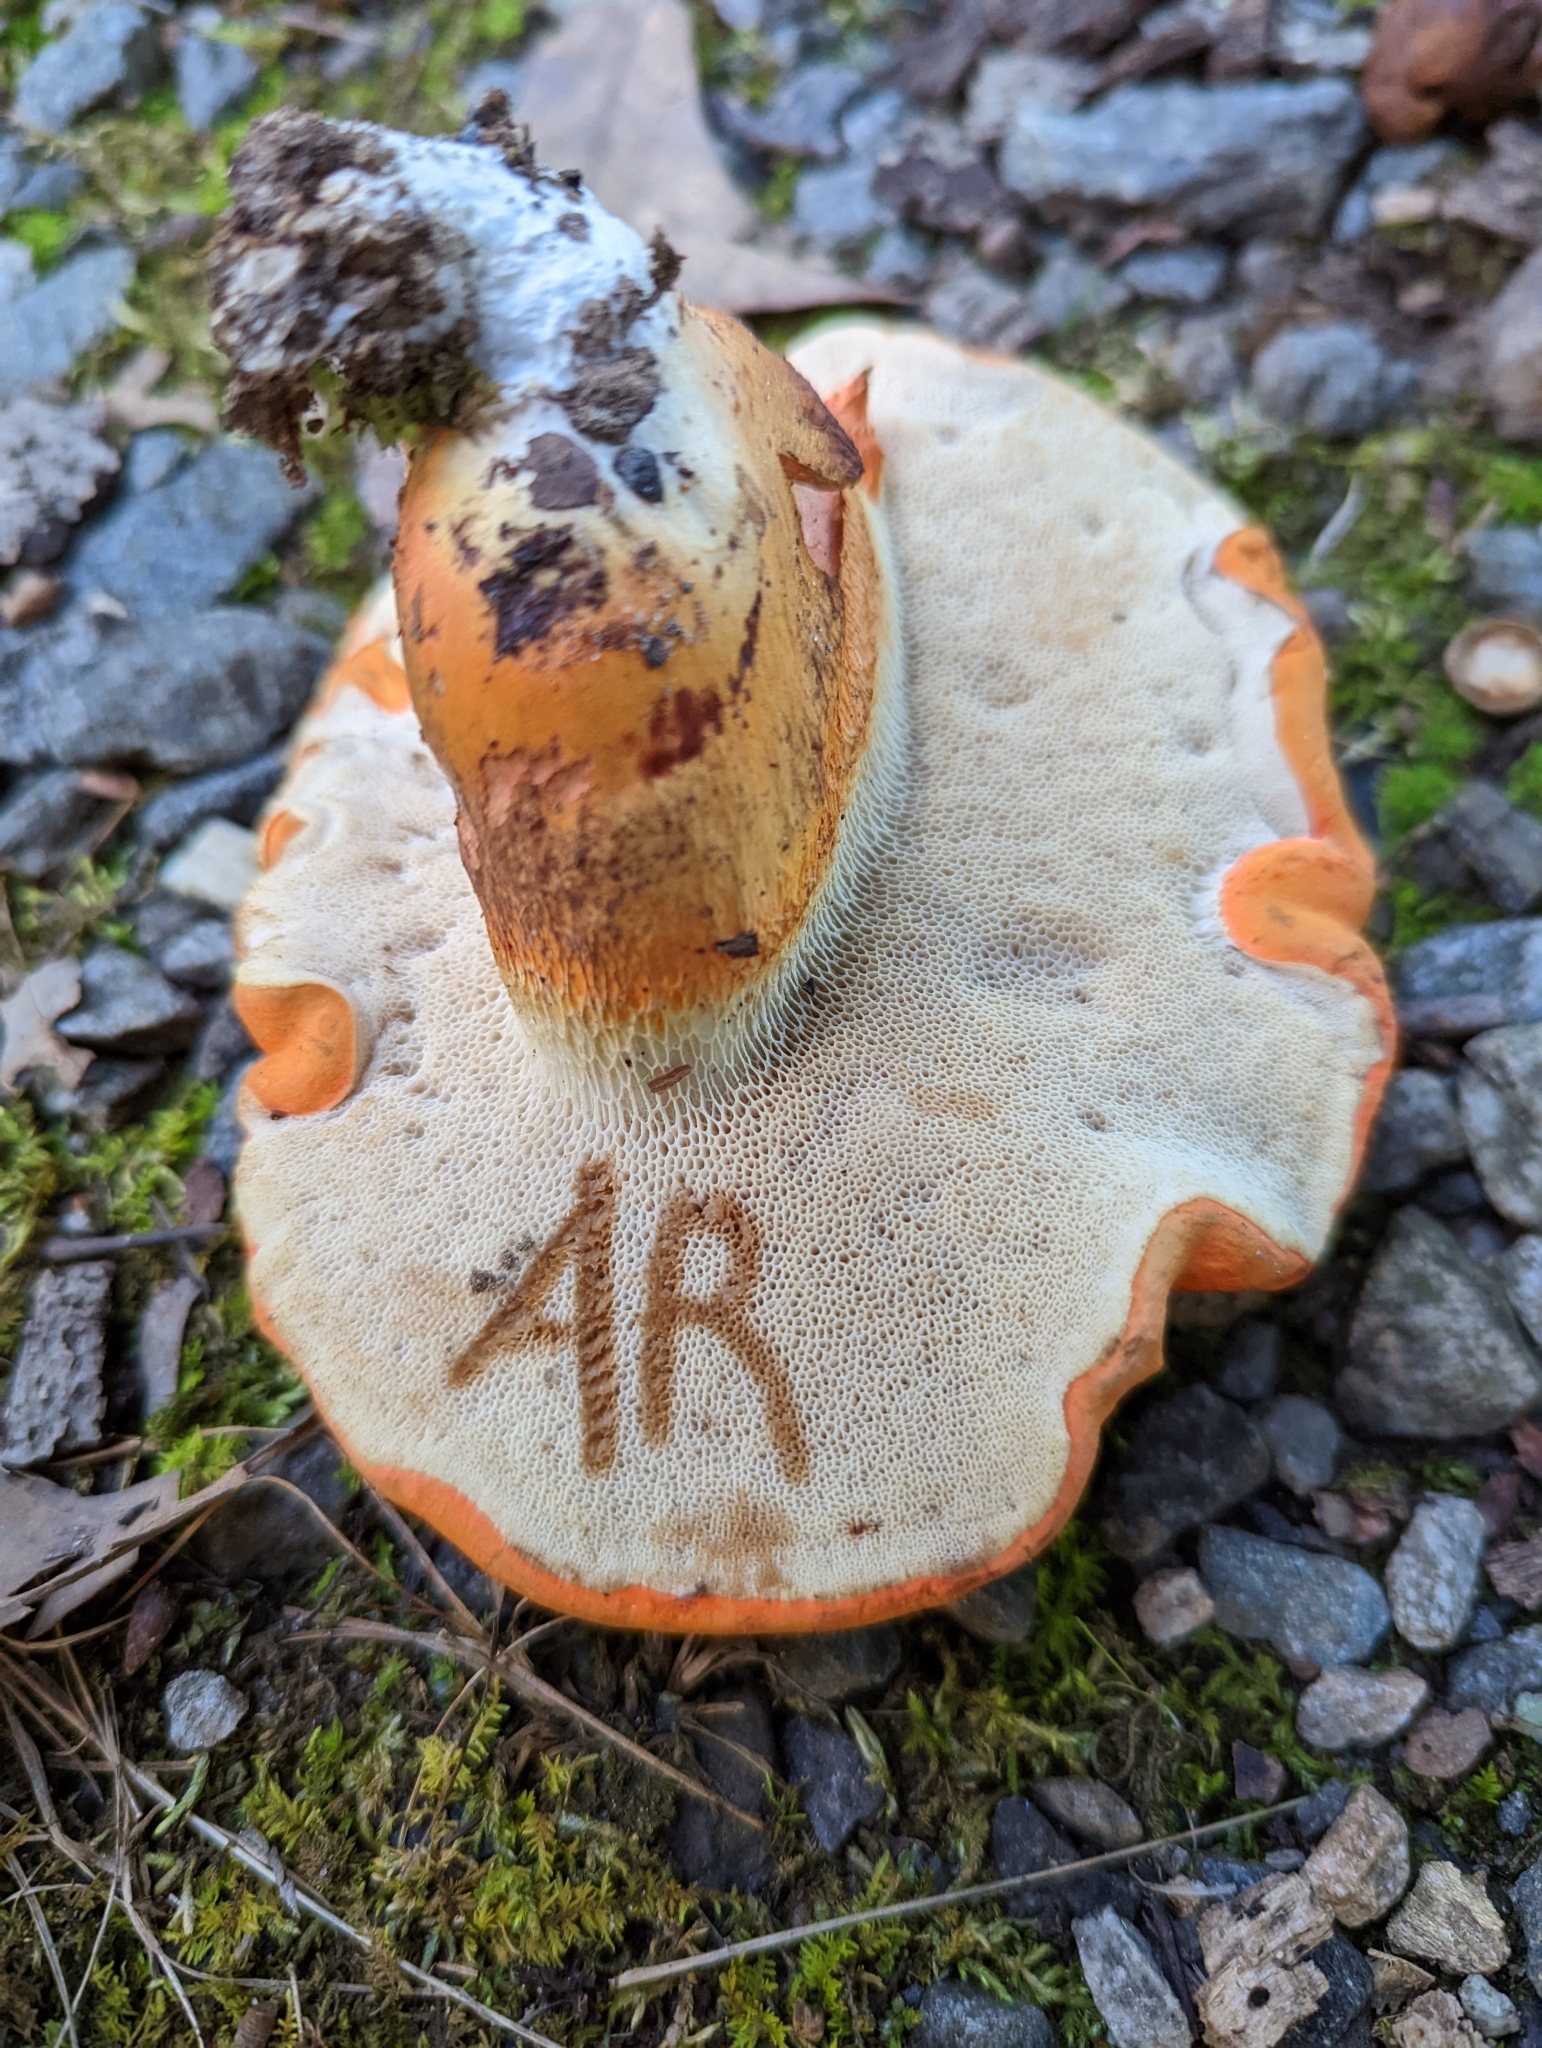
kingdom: Fungi
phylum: Basidiomycota
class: Agaricomycetes
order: Boletales
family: Boletaceae
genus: Tylopilus
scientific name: Tylopilus balloui
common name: Burnt-orange bolete
